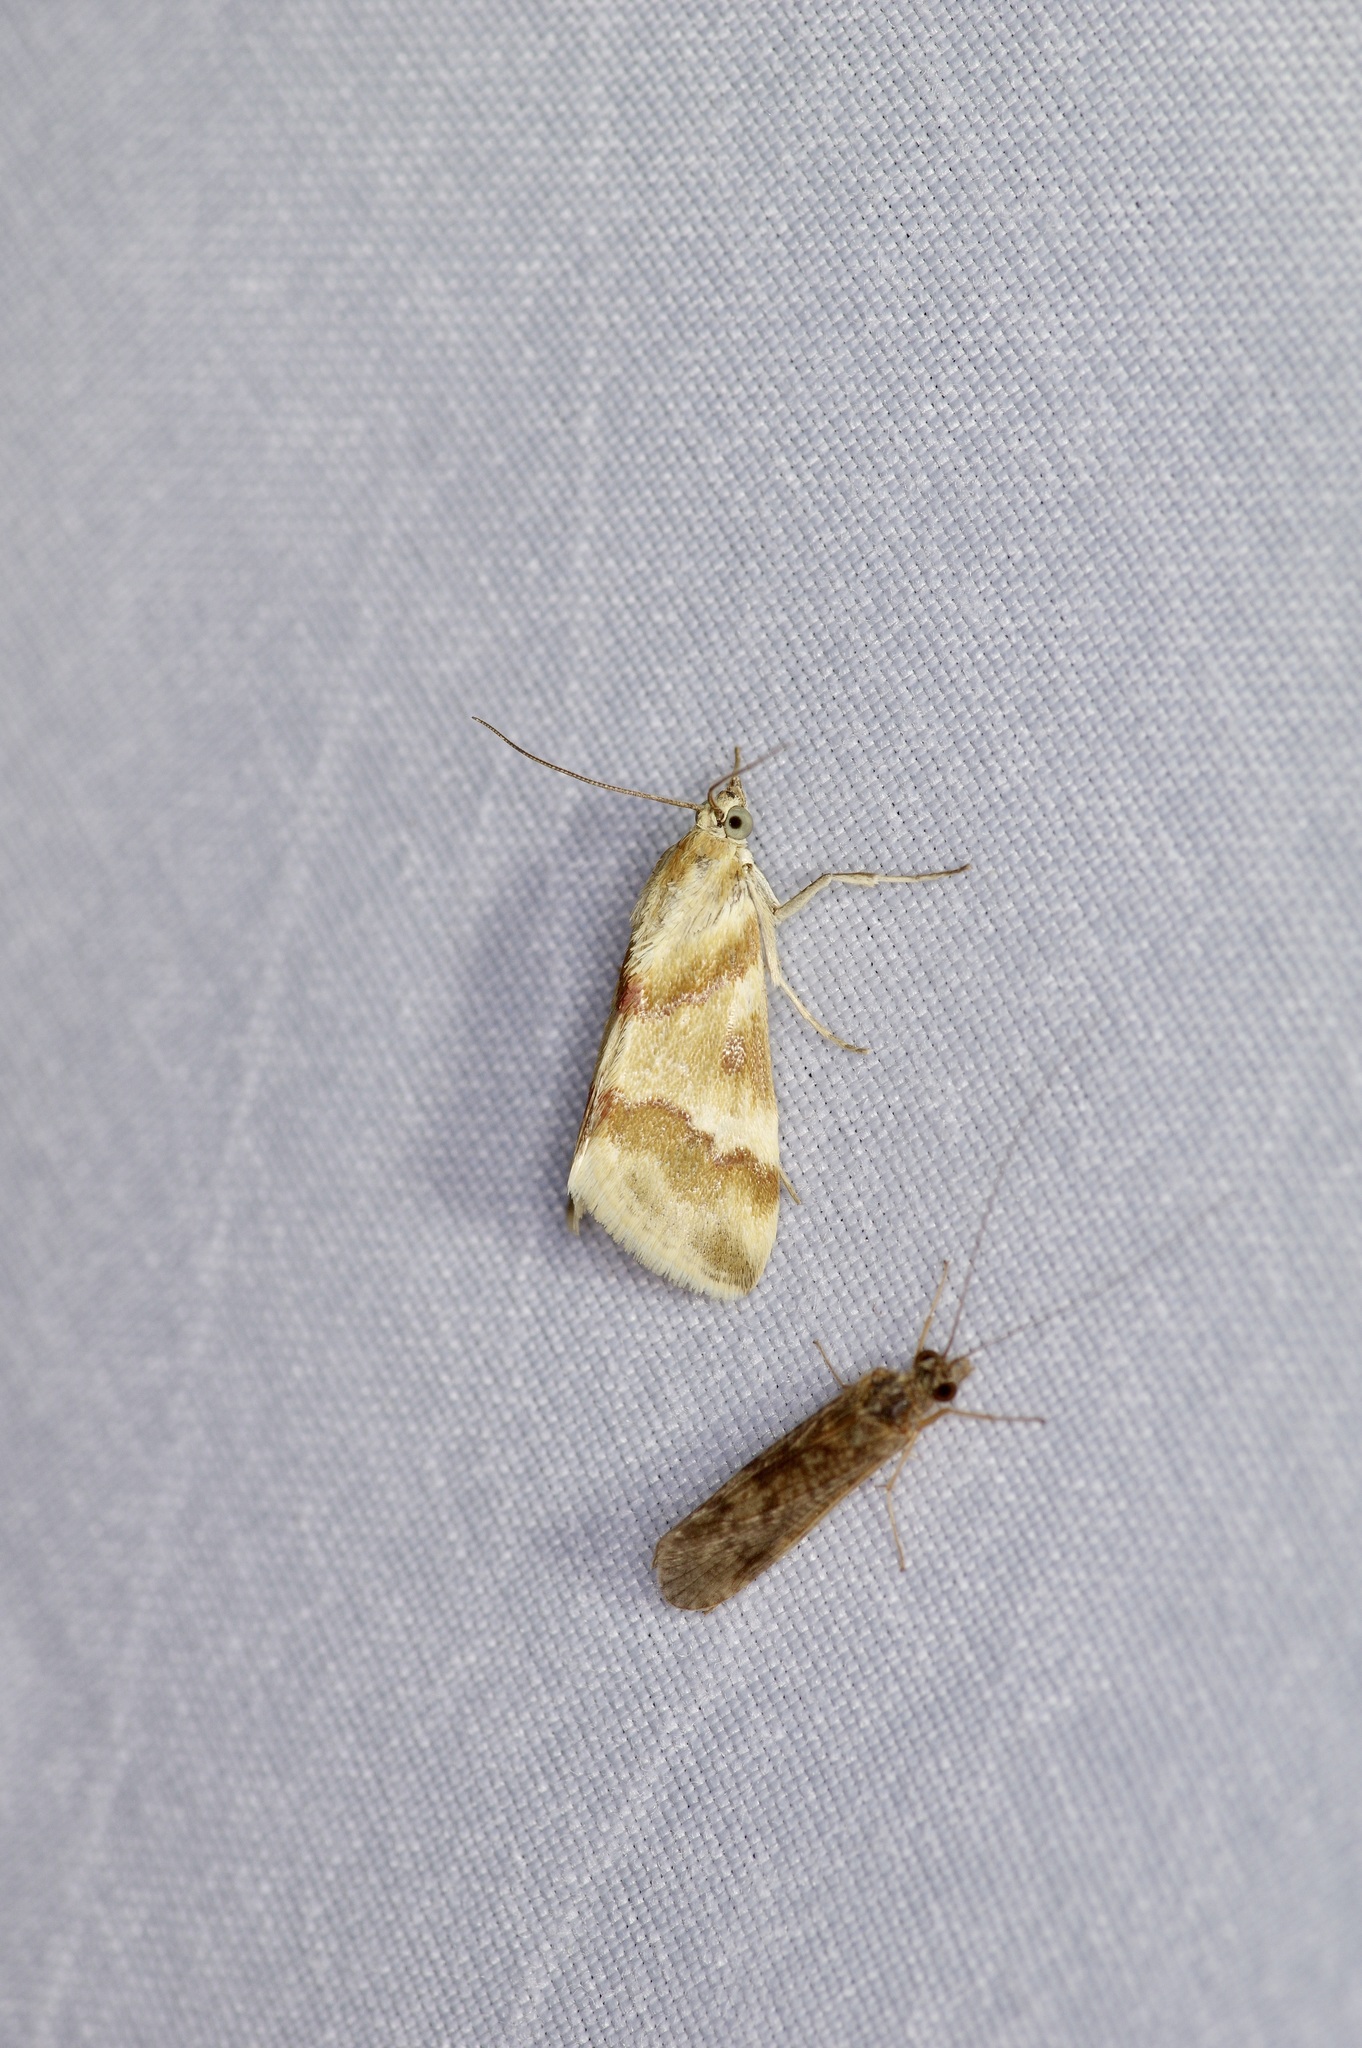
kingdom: Animalia
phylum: Arthropoda
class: Insecta
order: Lepidoptera
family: Crambidae
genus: Noctuelia
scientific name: Noctuelia Mimoschinia rufofascialis
